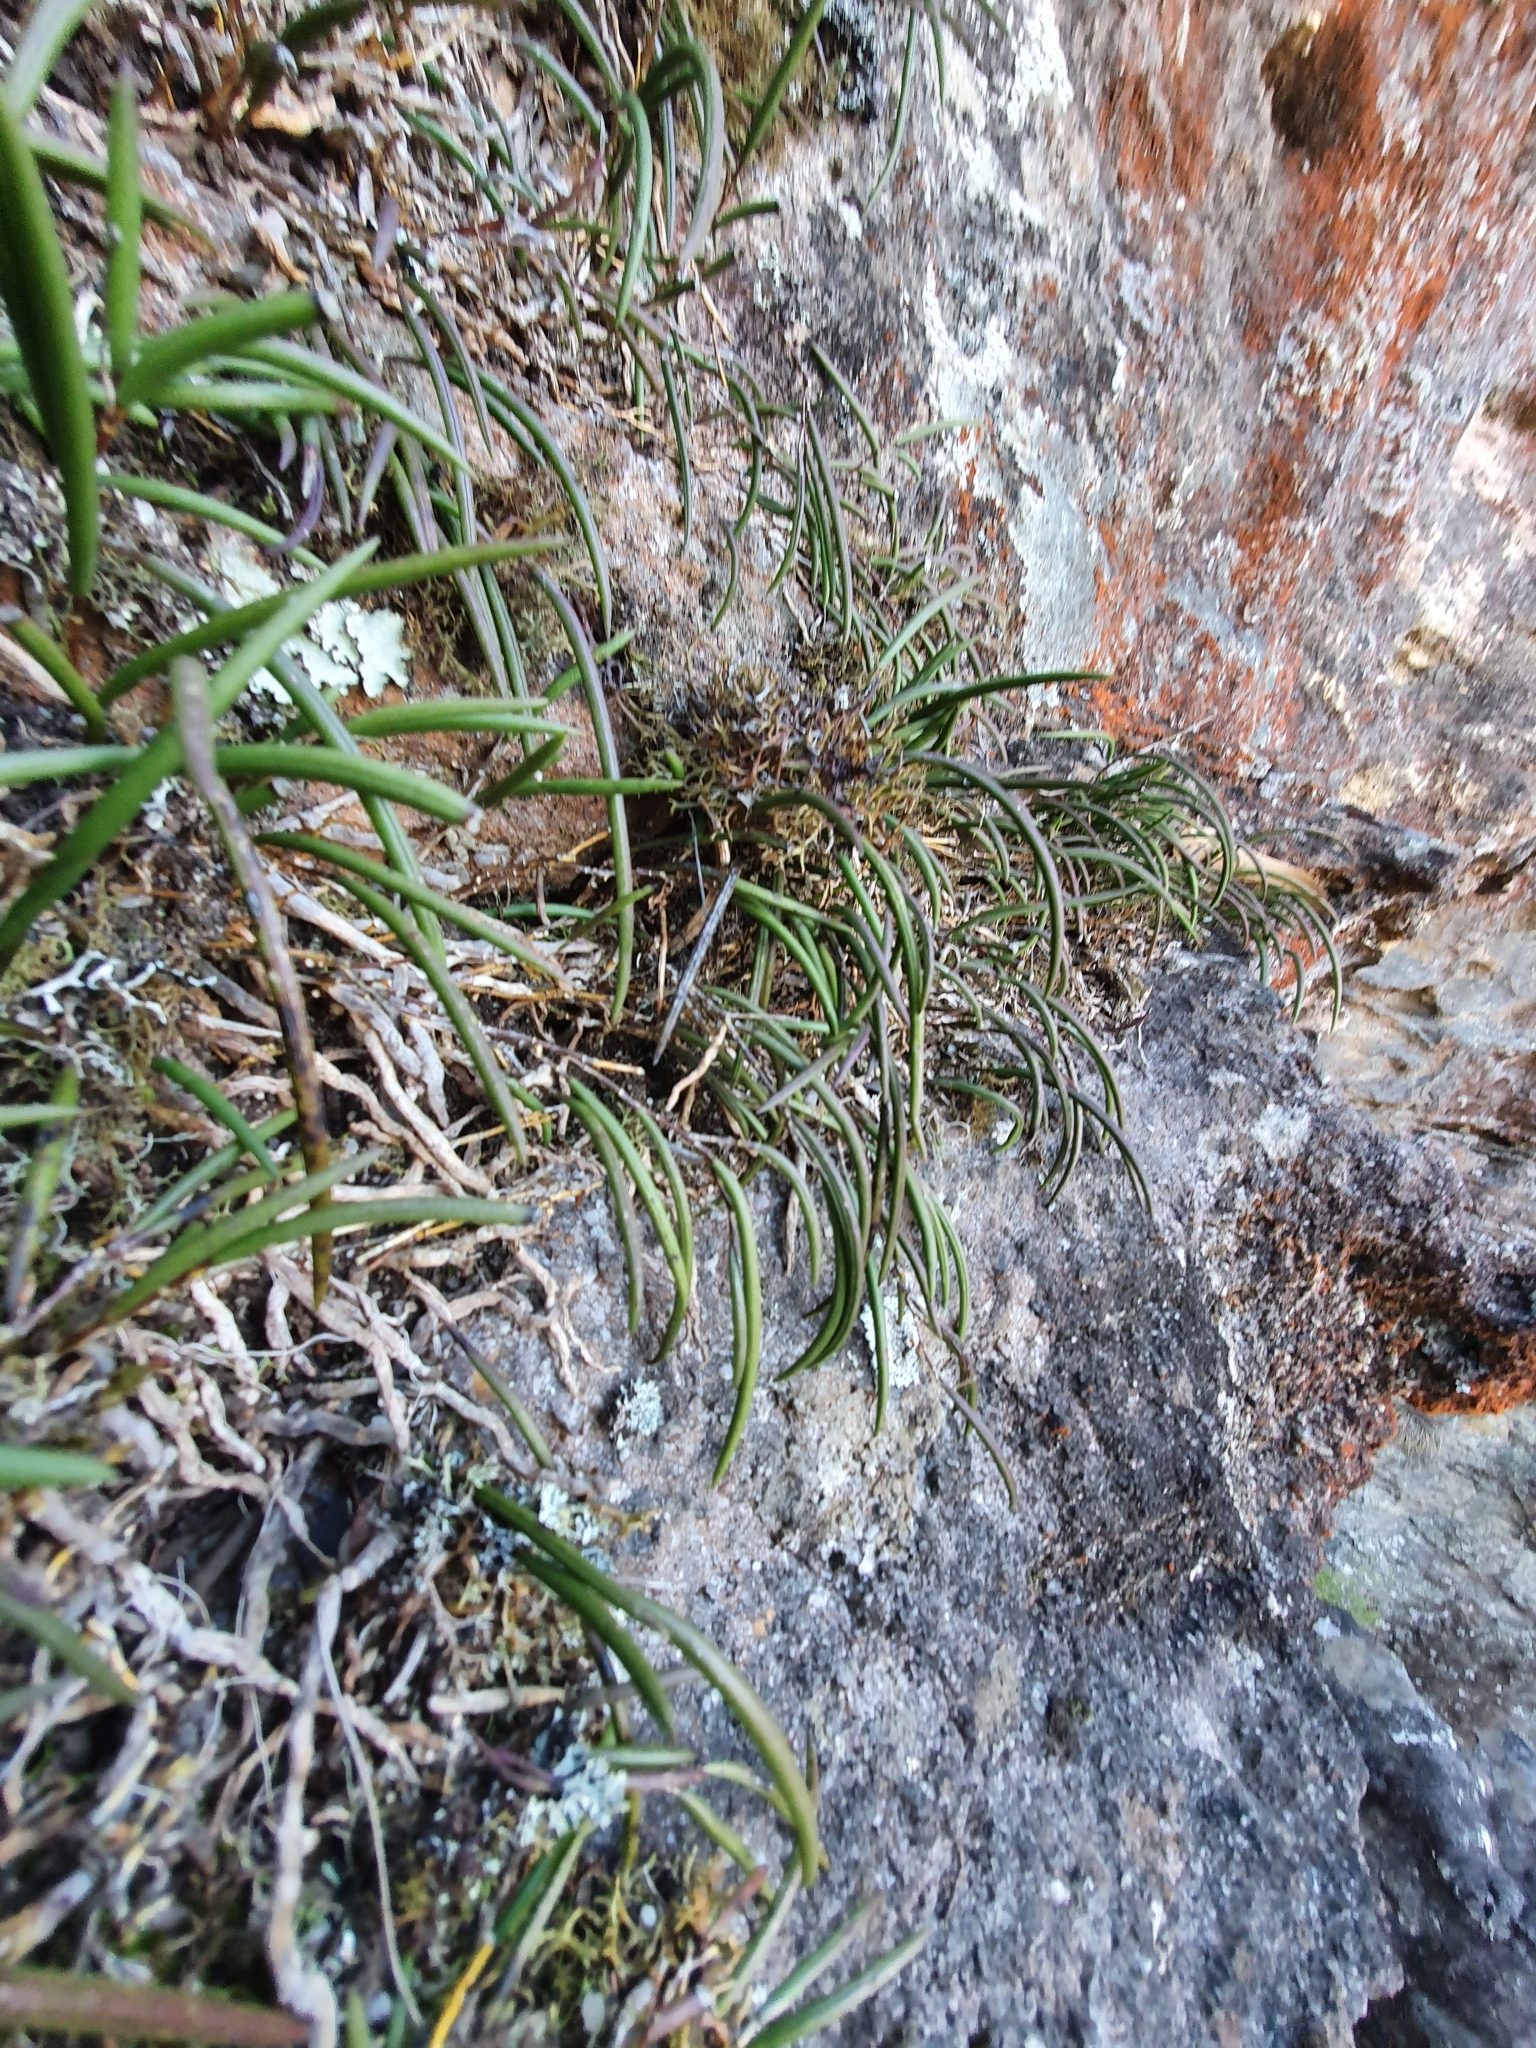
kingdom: Plantae
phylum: Tracheophyta
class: Liliopsida
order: Asparagales
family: Orchidaceae
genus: Dendrobium
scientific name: Dendrobium striolatum
